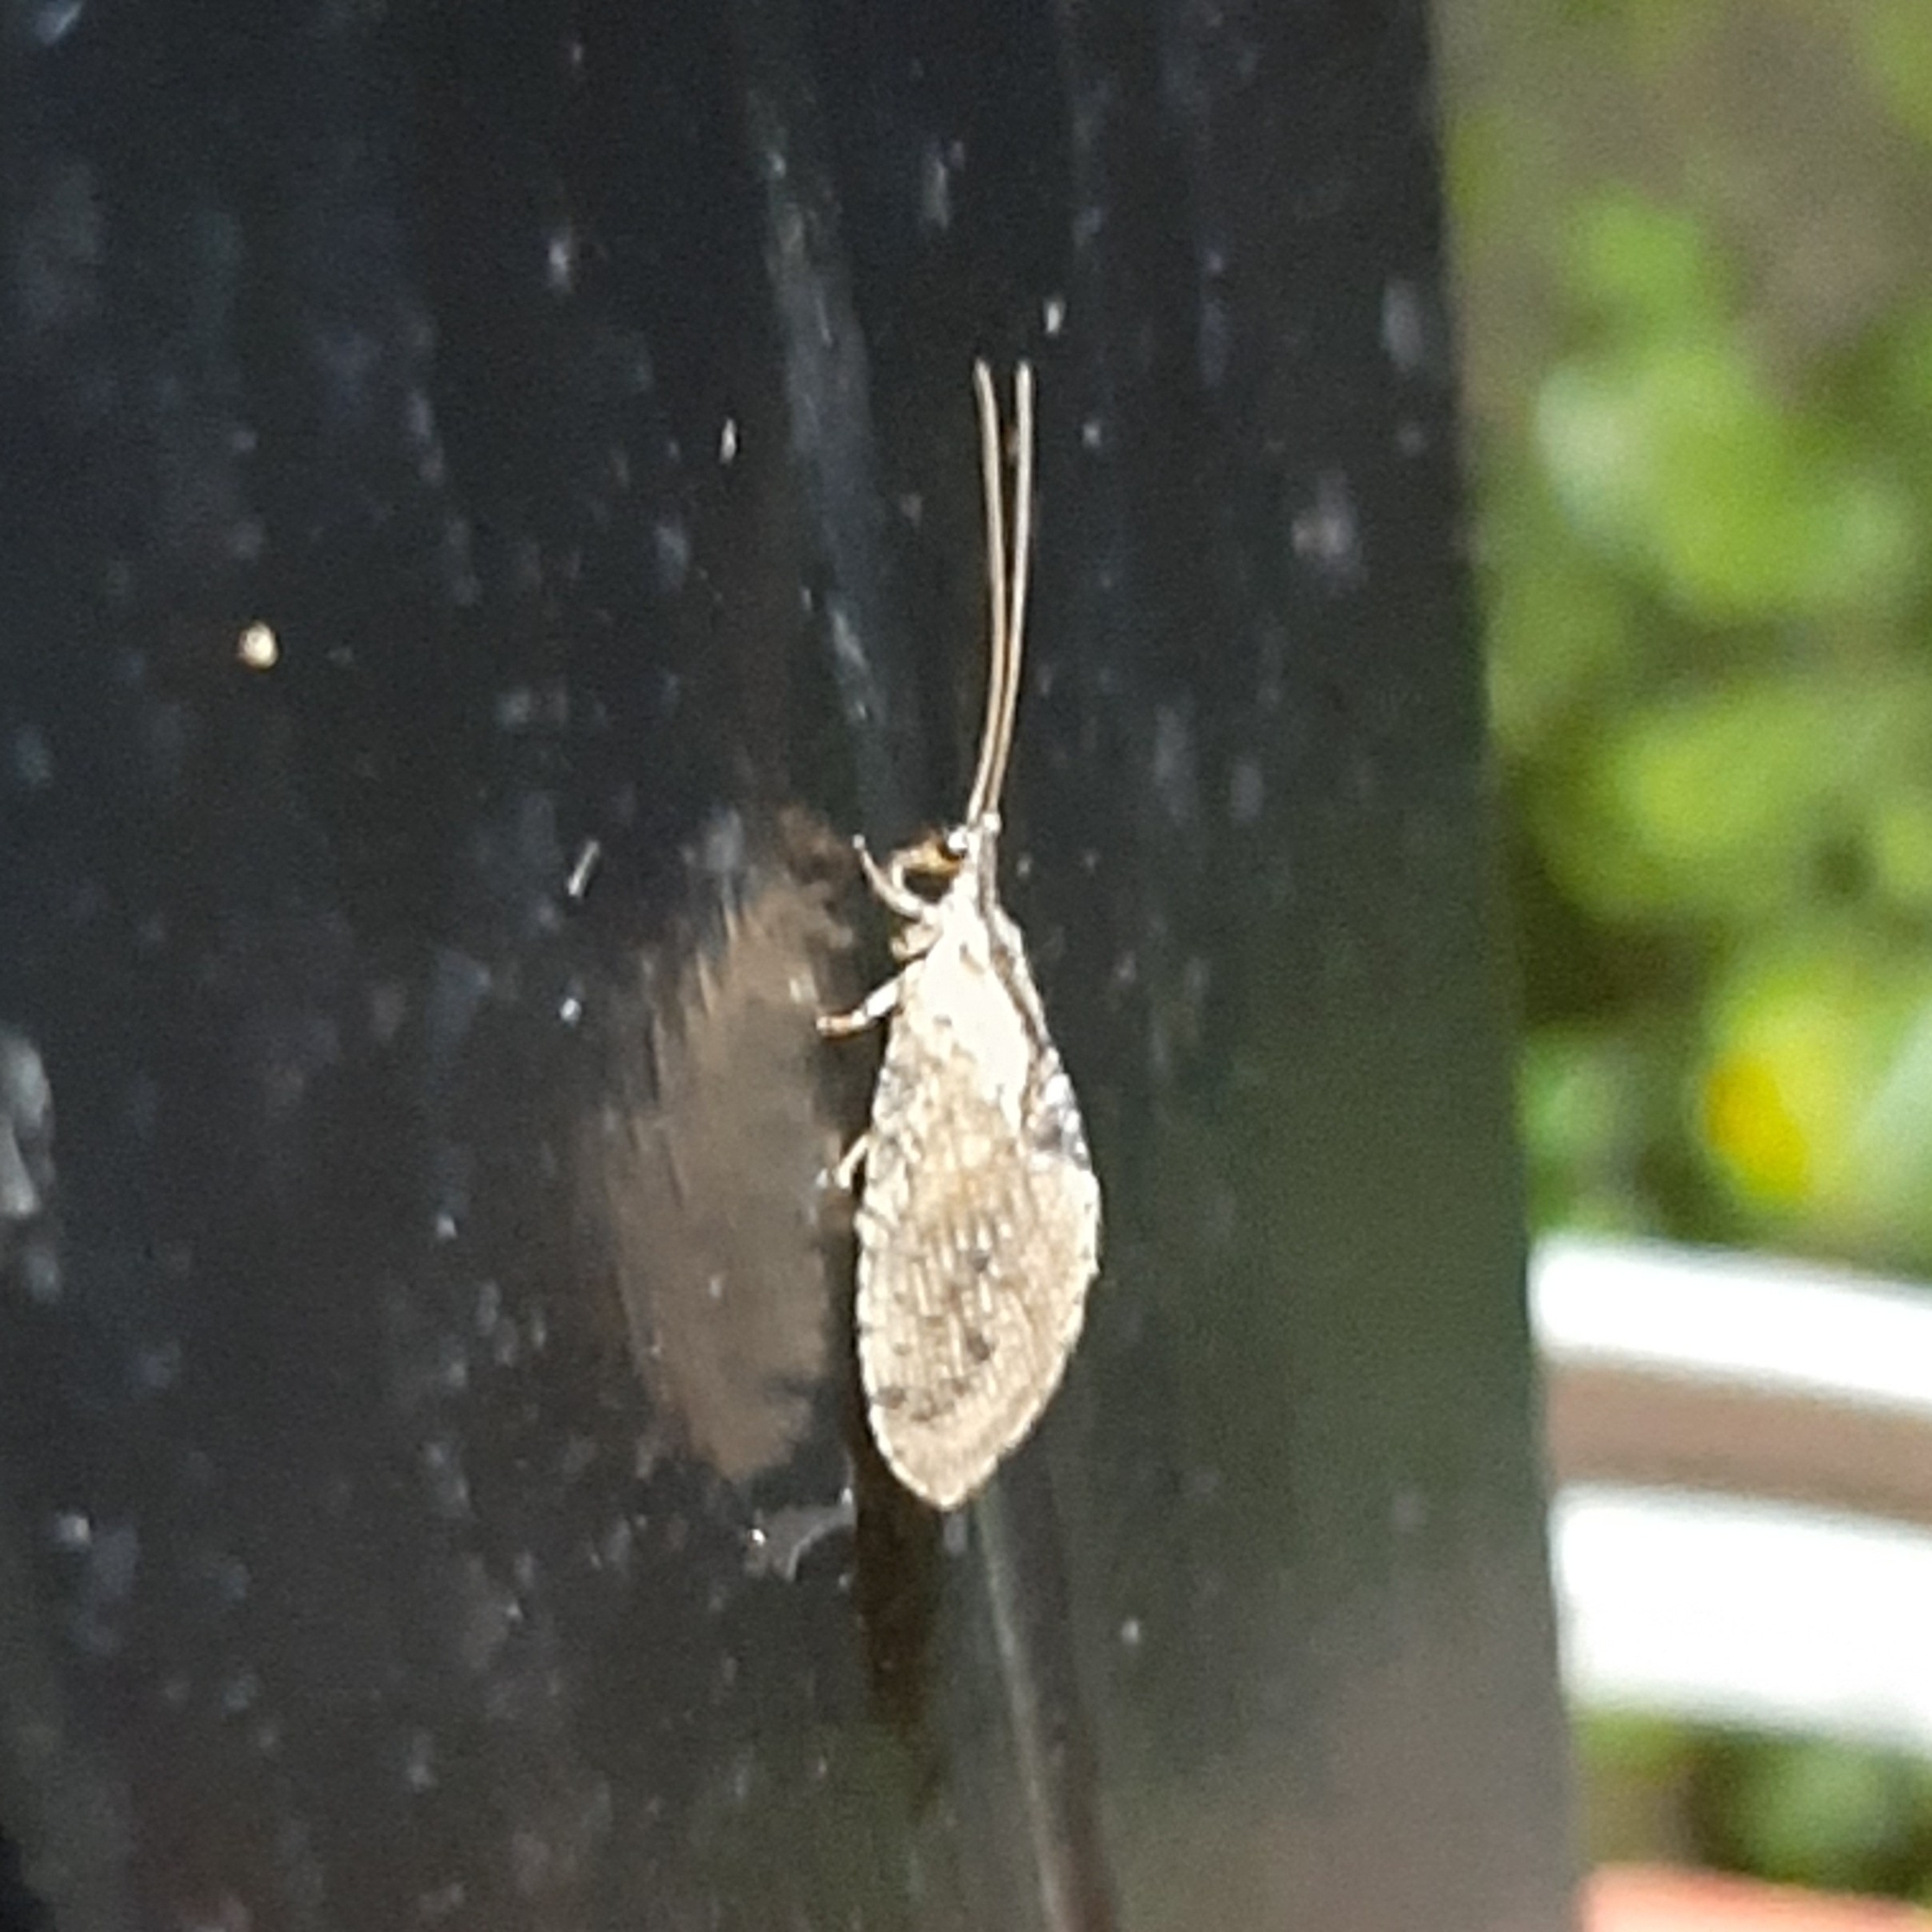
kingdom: Animalia
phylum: Arthropoda
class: Insecta
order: Neuroptera
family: Hemerobiidae
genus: Nusalala
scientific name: Nusalala championi
